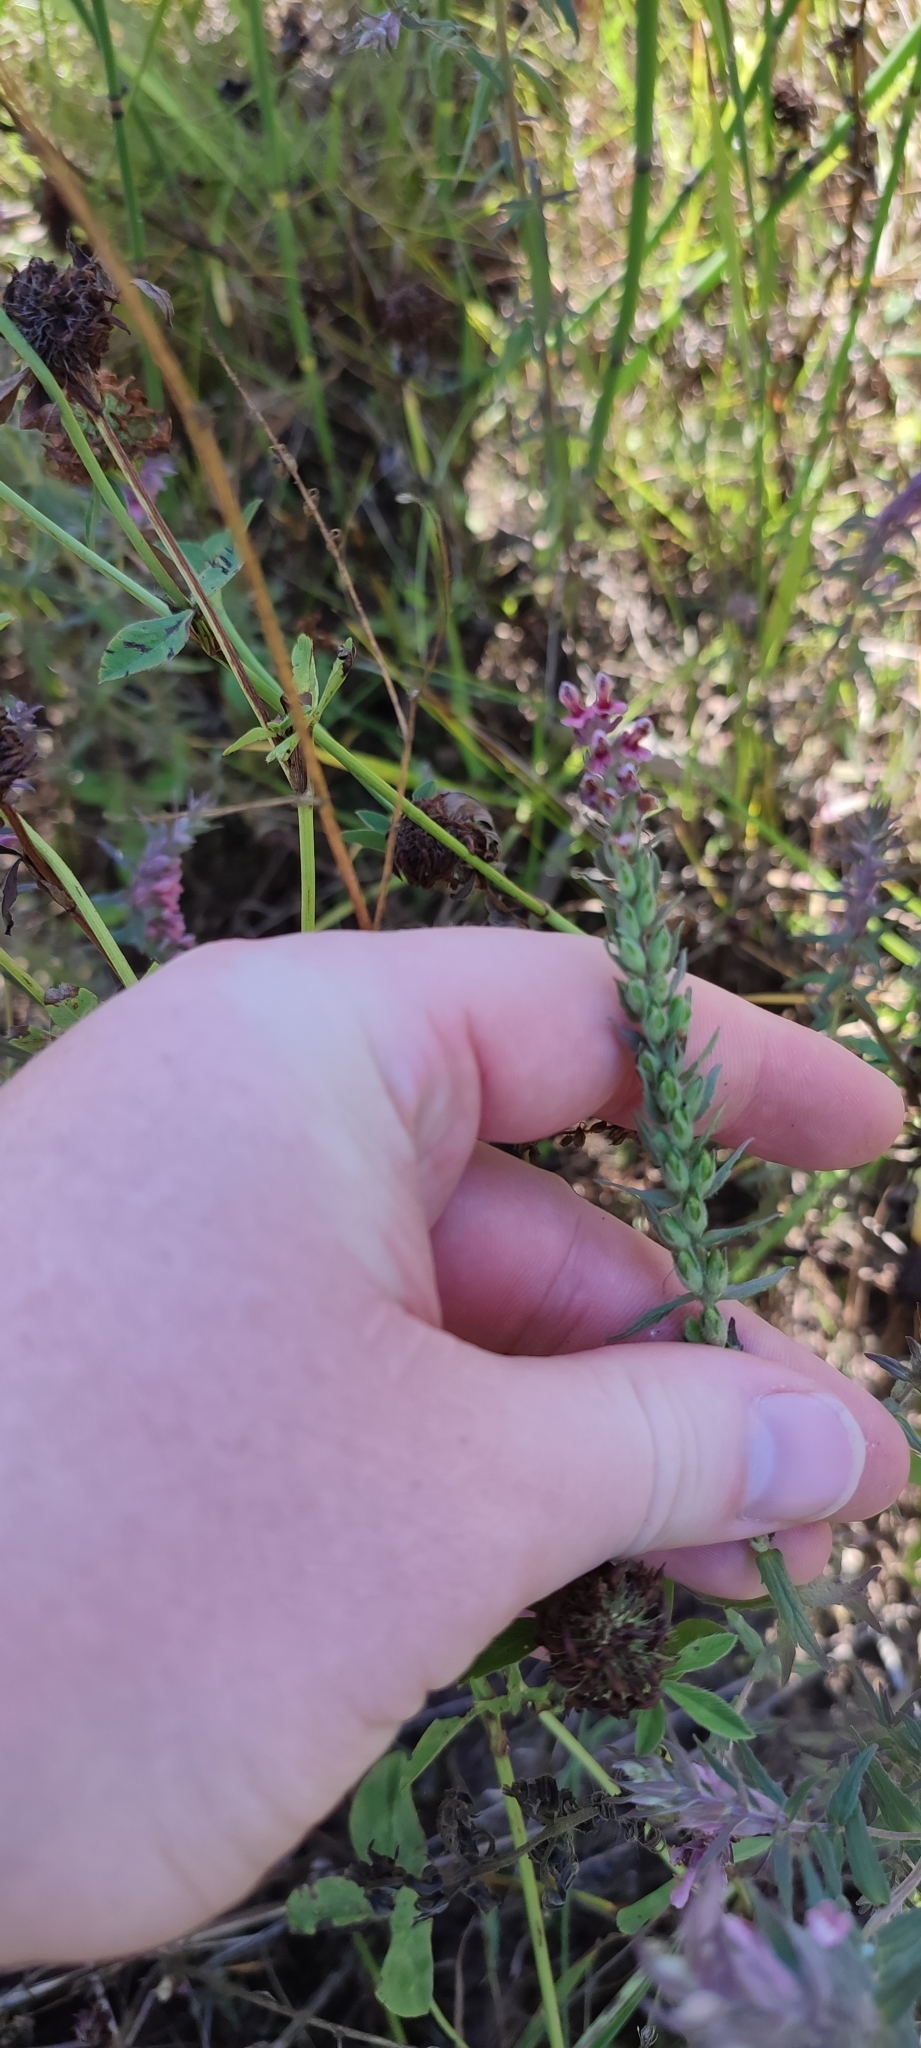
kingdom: Plantae
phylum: Tracheophyta
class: Magnoliopsida
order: Lamiales
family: Orobanchaceae
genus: Odontites
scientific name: Odontites vulgaris
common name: Broomrape
